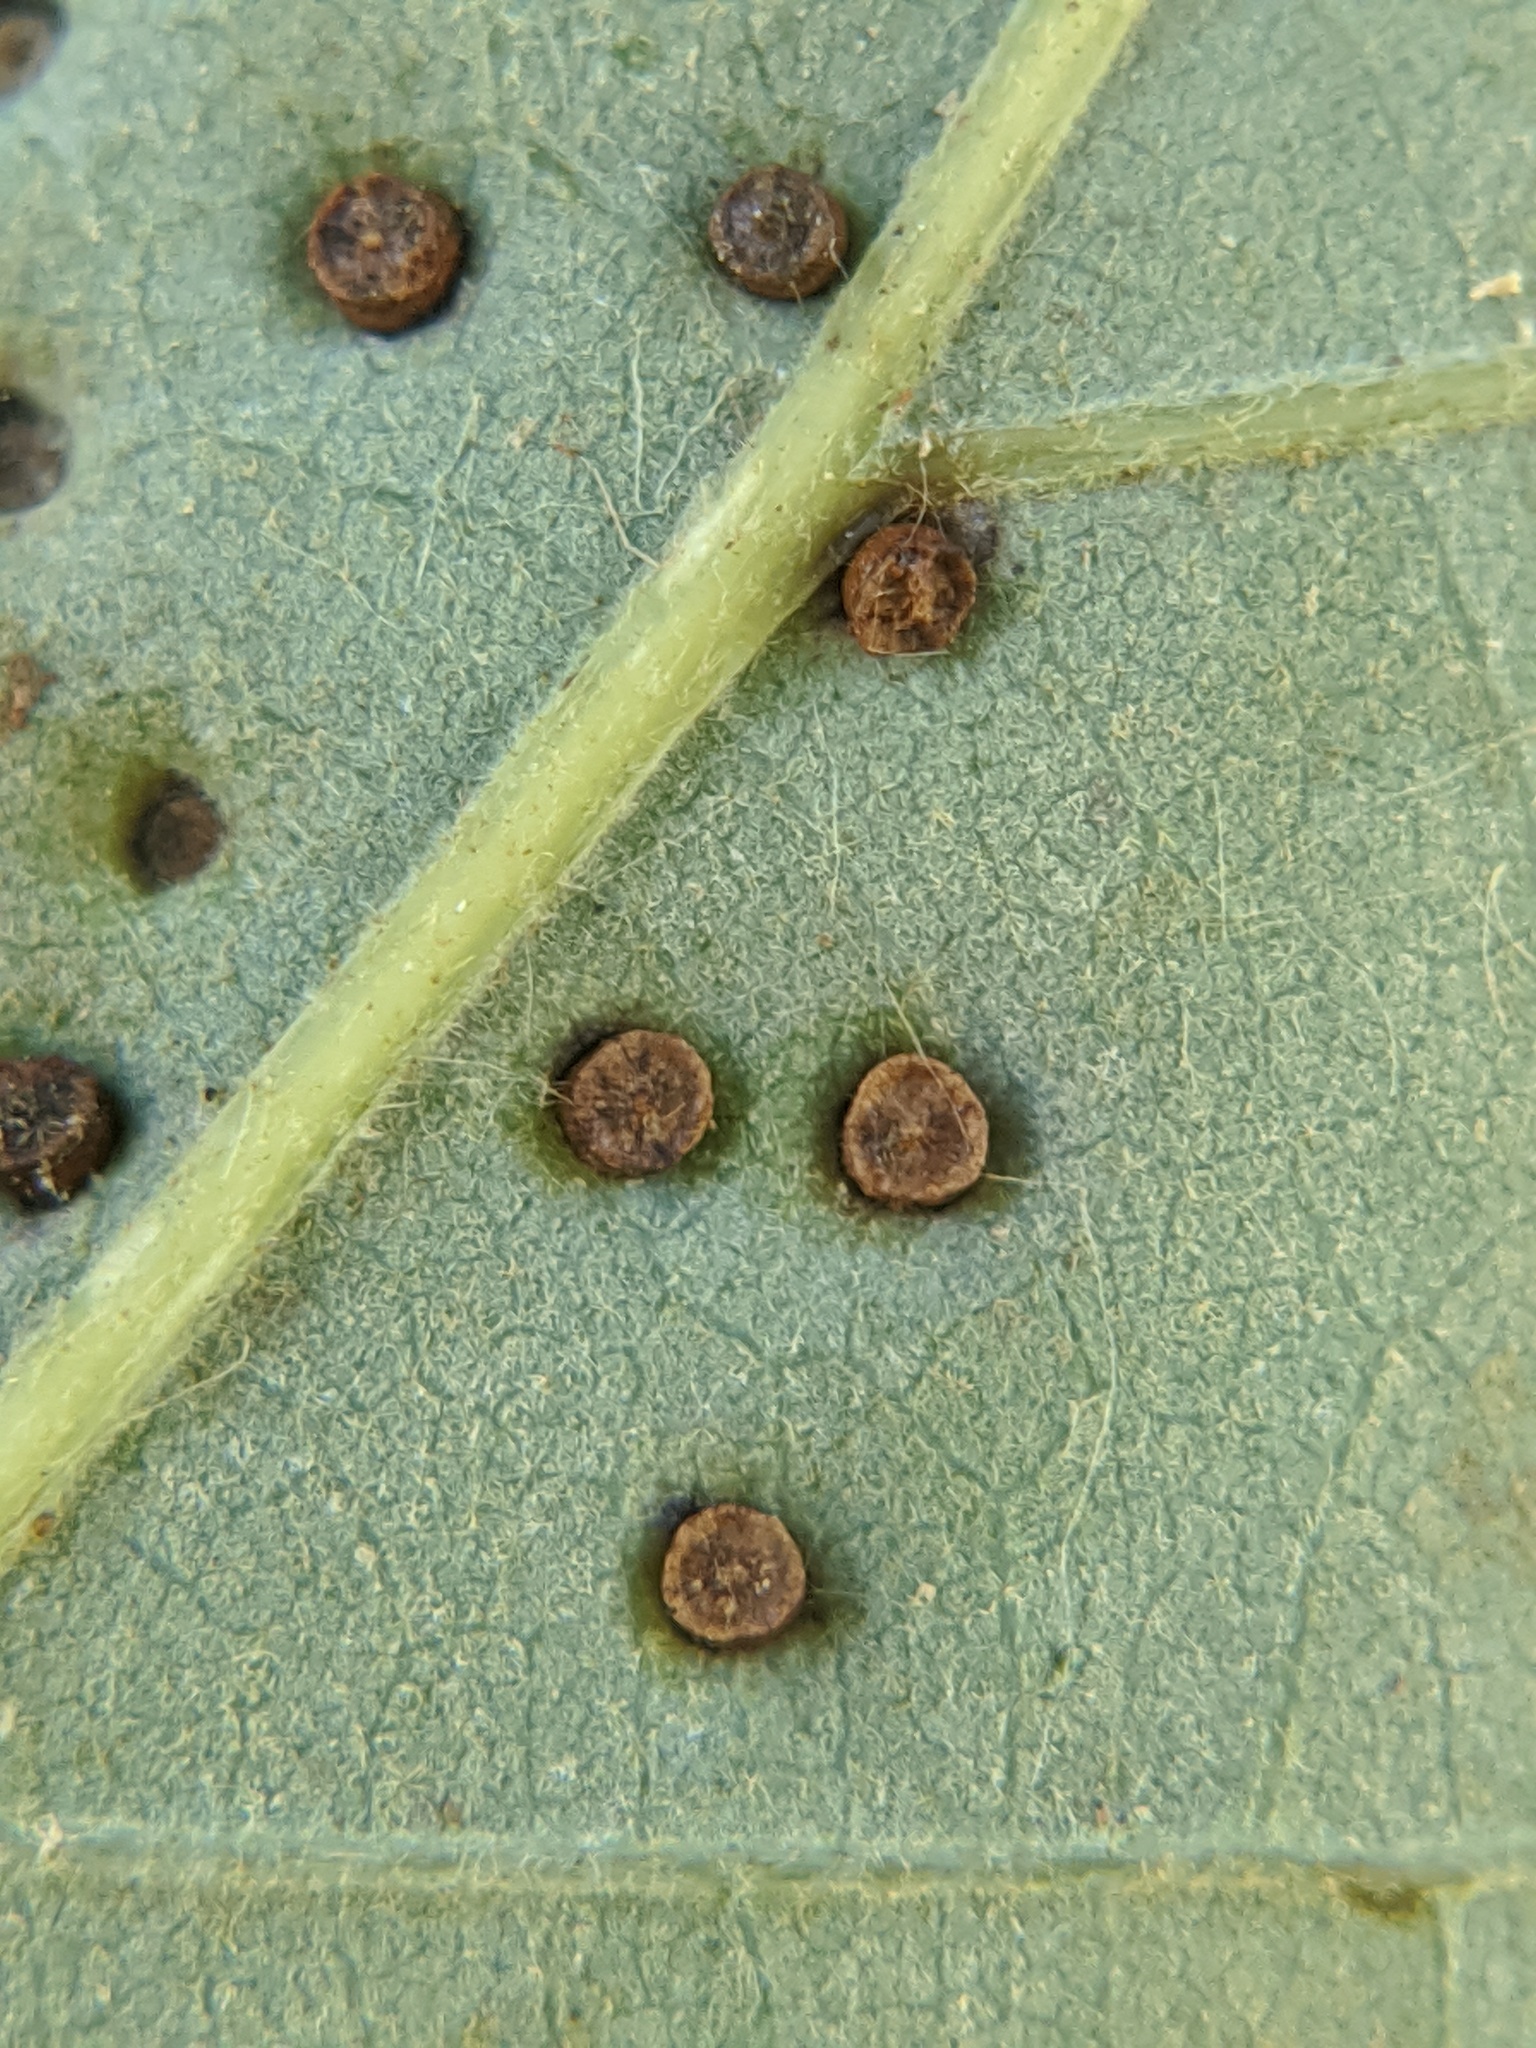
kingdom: Animalia
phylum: Arthropoda
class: Insecta
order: Hymenoptera
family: Cynipidae
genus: Neuroterus
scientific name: Neuroterus saltarius
